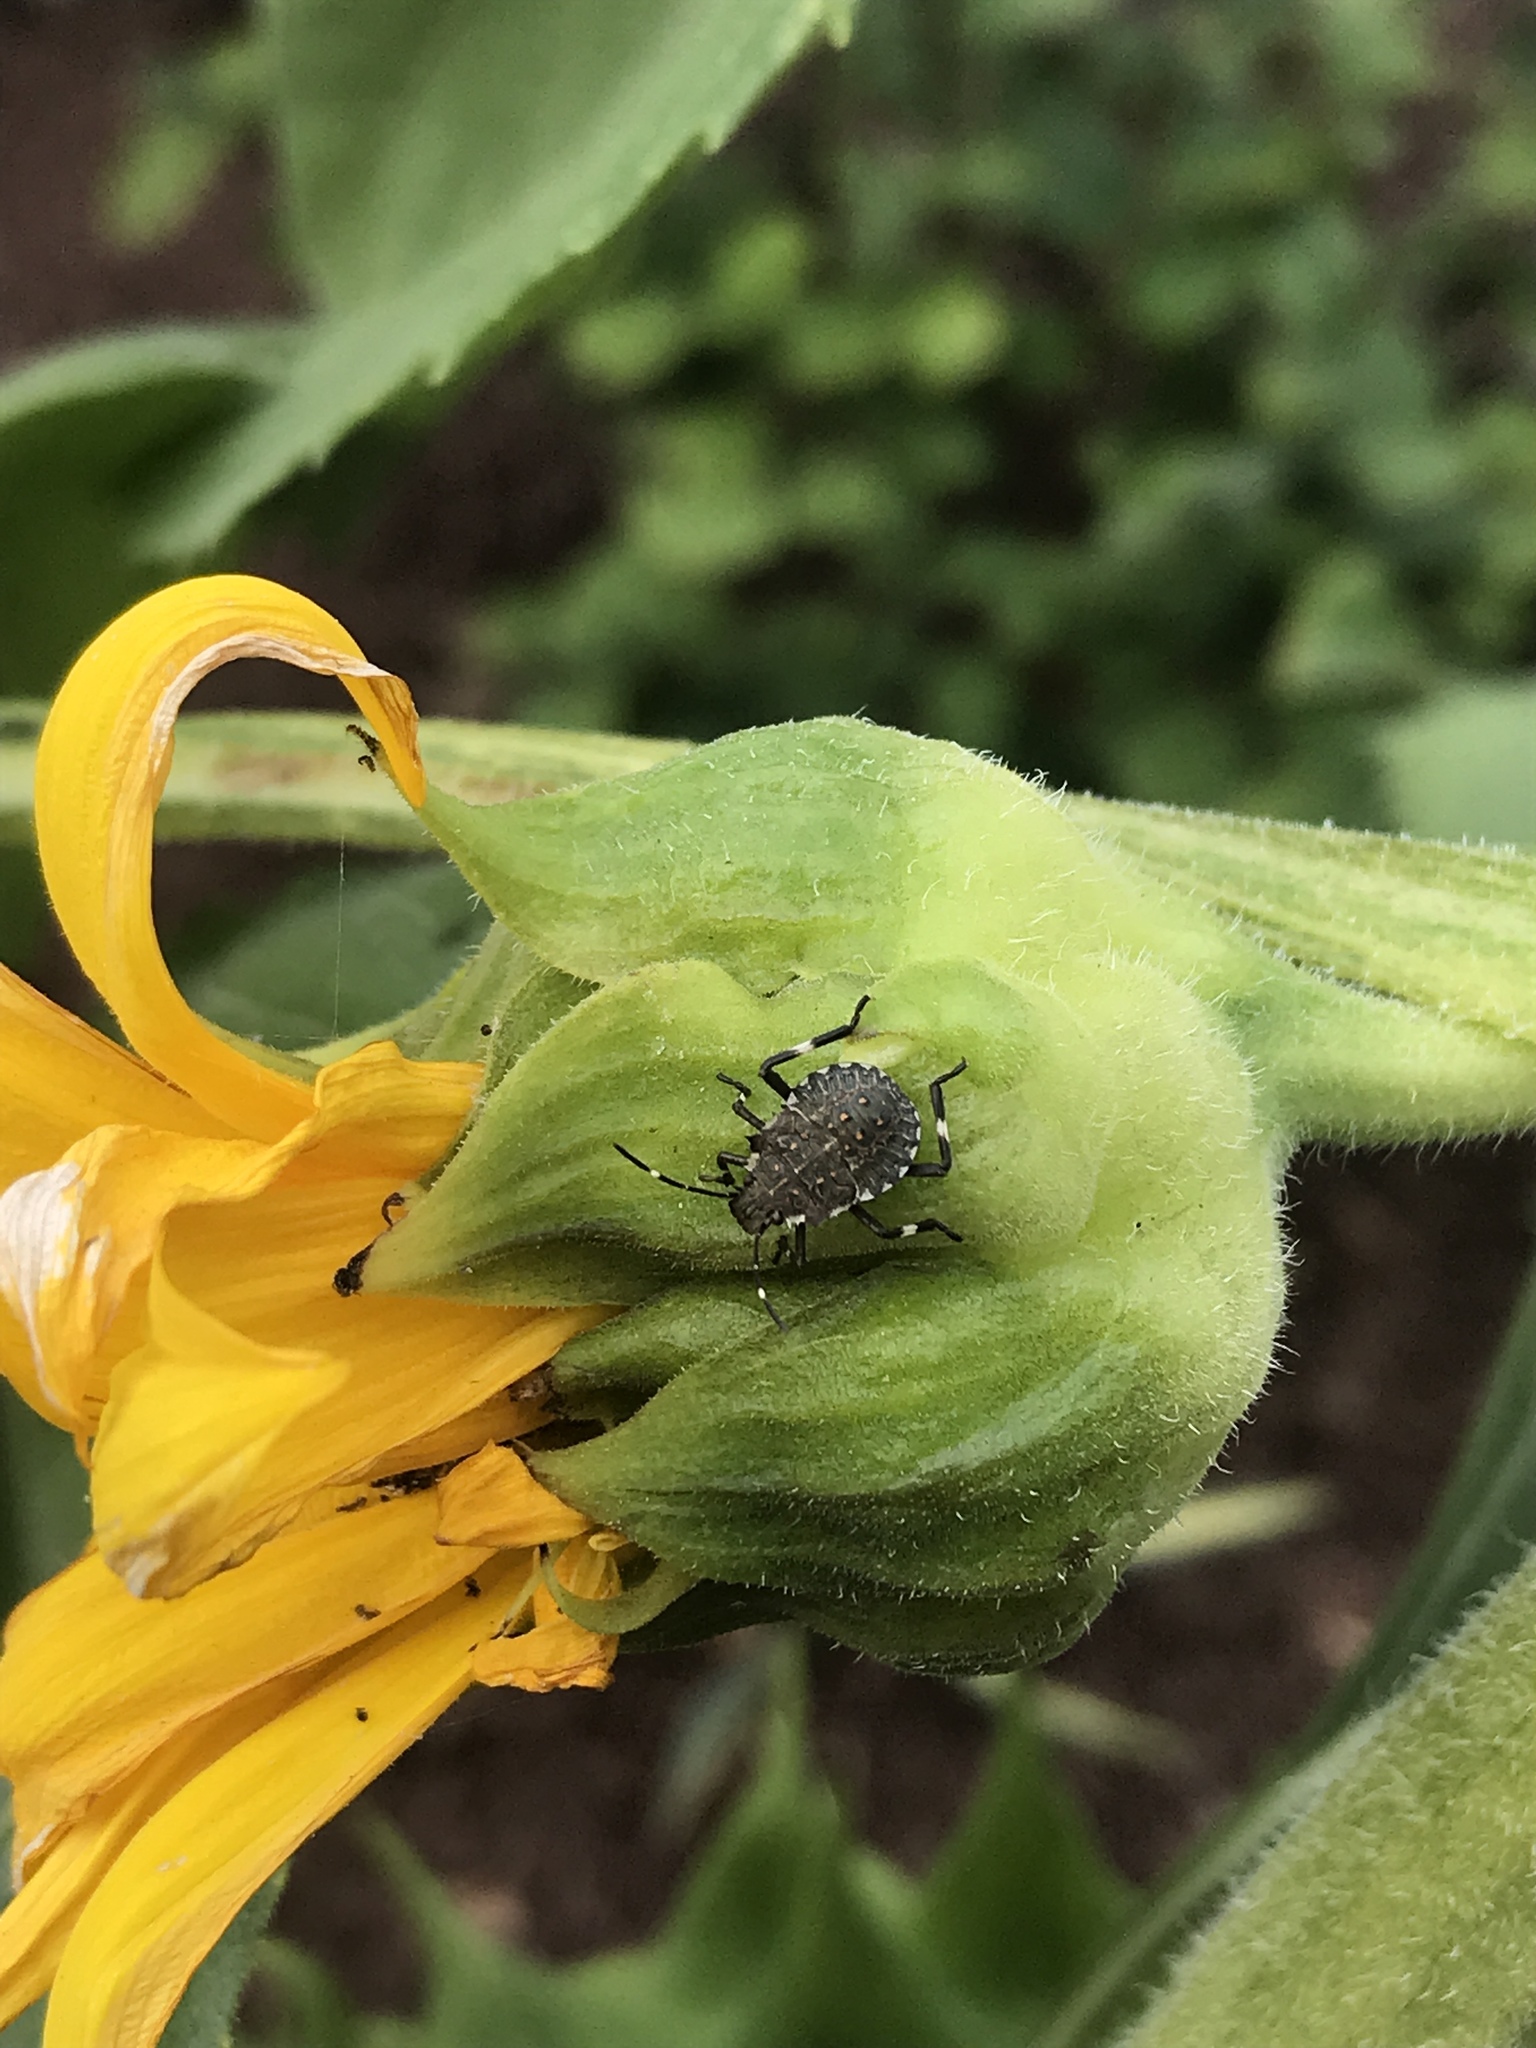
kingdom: Animalia
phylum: Arthropoda
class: Insecta
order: Hemiptera
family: Pentatomidae
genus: Halyomorpha
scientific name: Halyomorpha halys
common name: Brown marmorated stink bug
